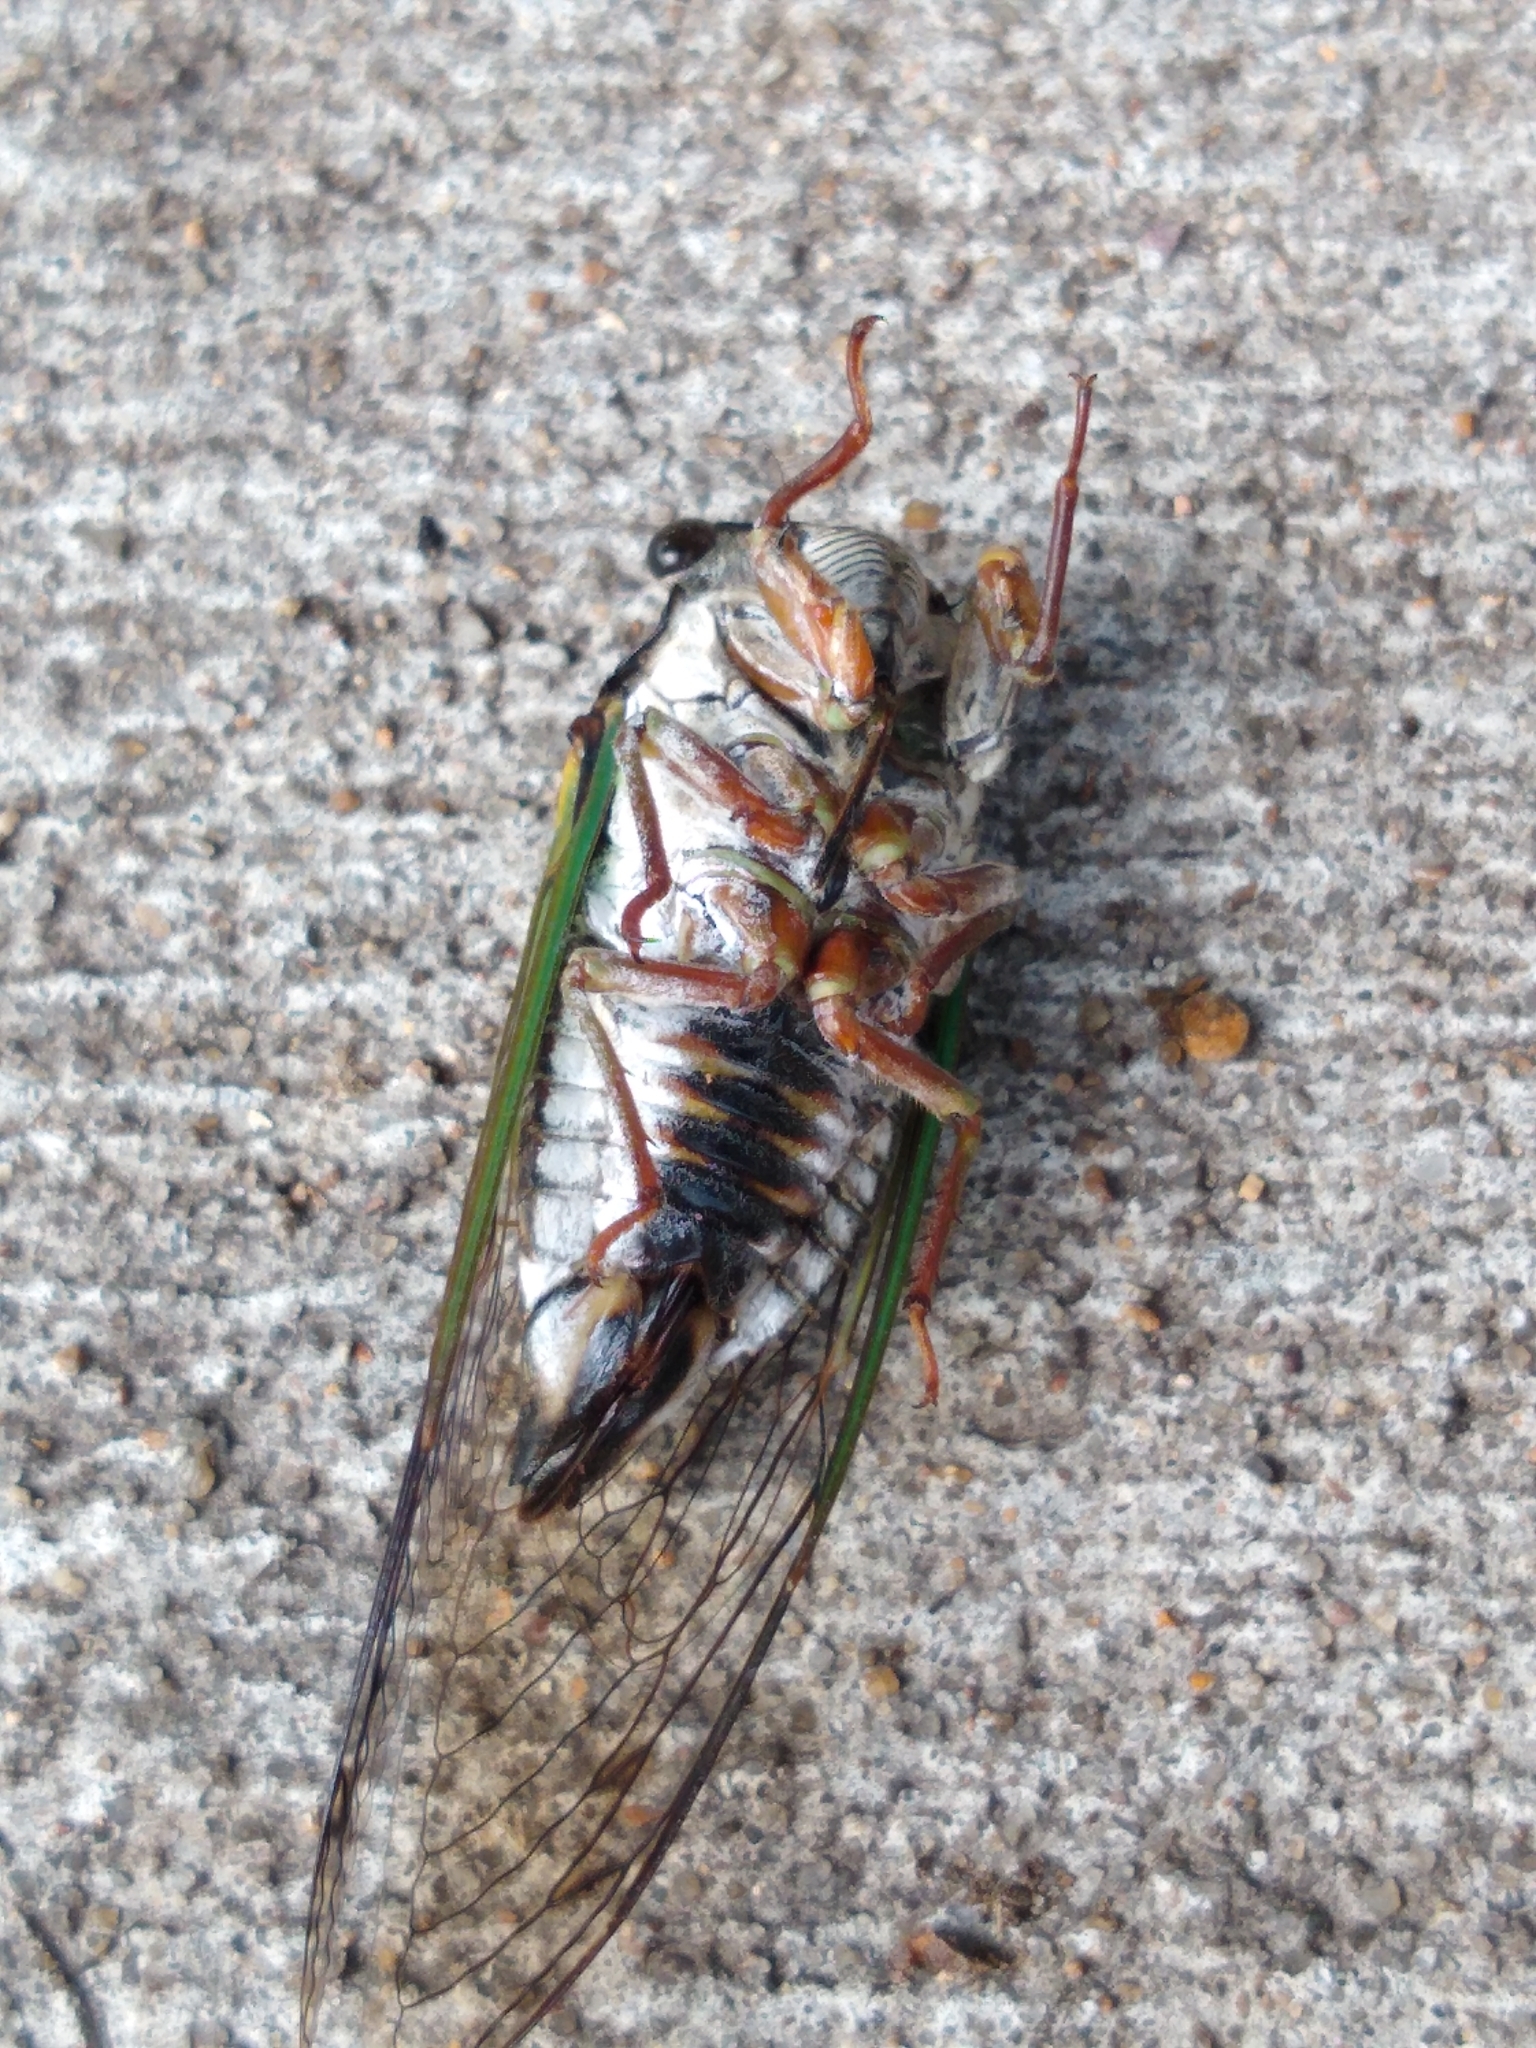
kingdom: Animalia
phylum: Arthropoda
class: Insecta
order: Hemiptera
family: Cicadidae
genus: Neotibicen
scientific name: Neotibicen lyricen
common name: Lyric cicada
